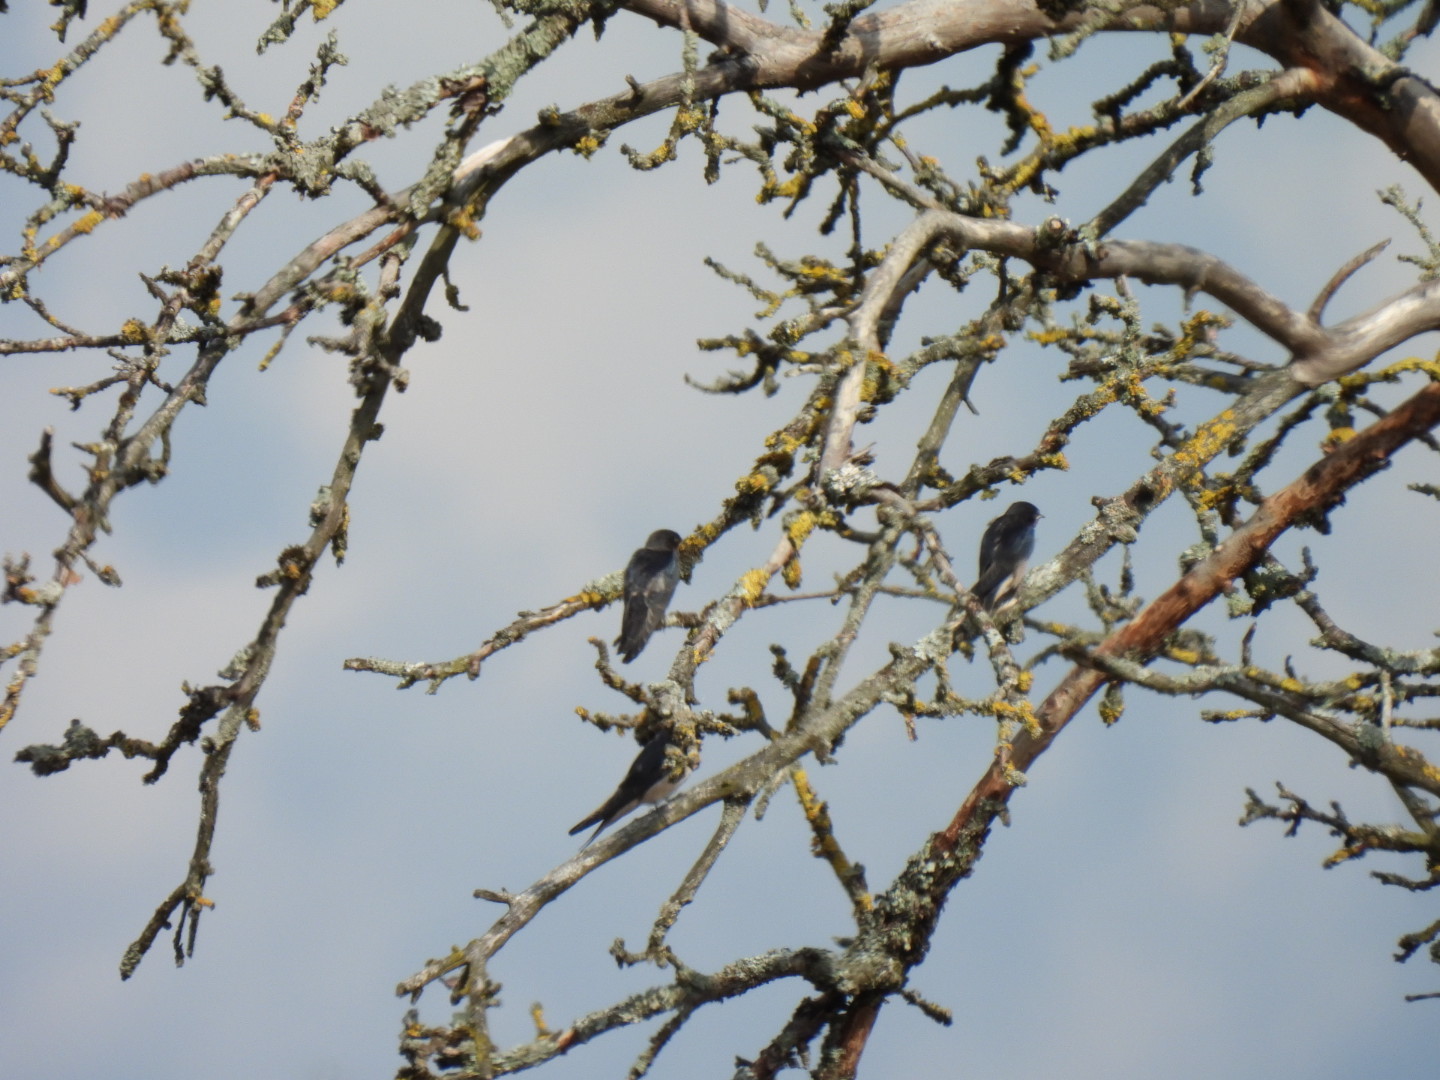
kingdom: Animalia
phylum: Chordata
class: Aves
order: Passeriformes
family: Hirundinidae
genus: Delichon
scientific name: Delichon urbicum
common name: Common house martin
